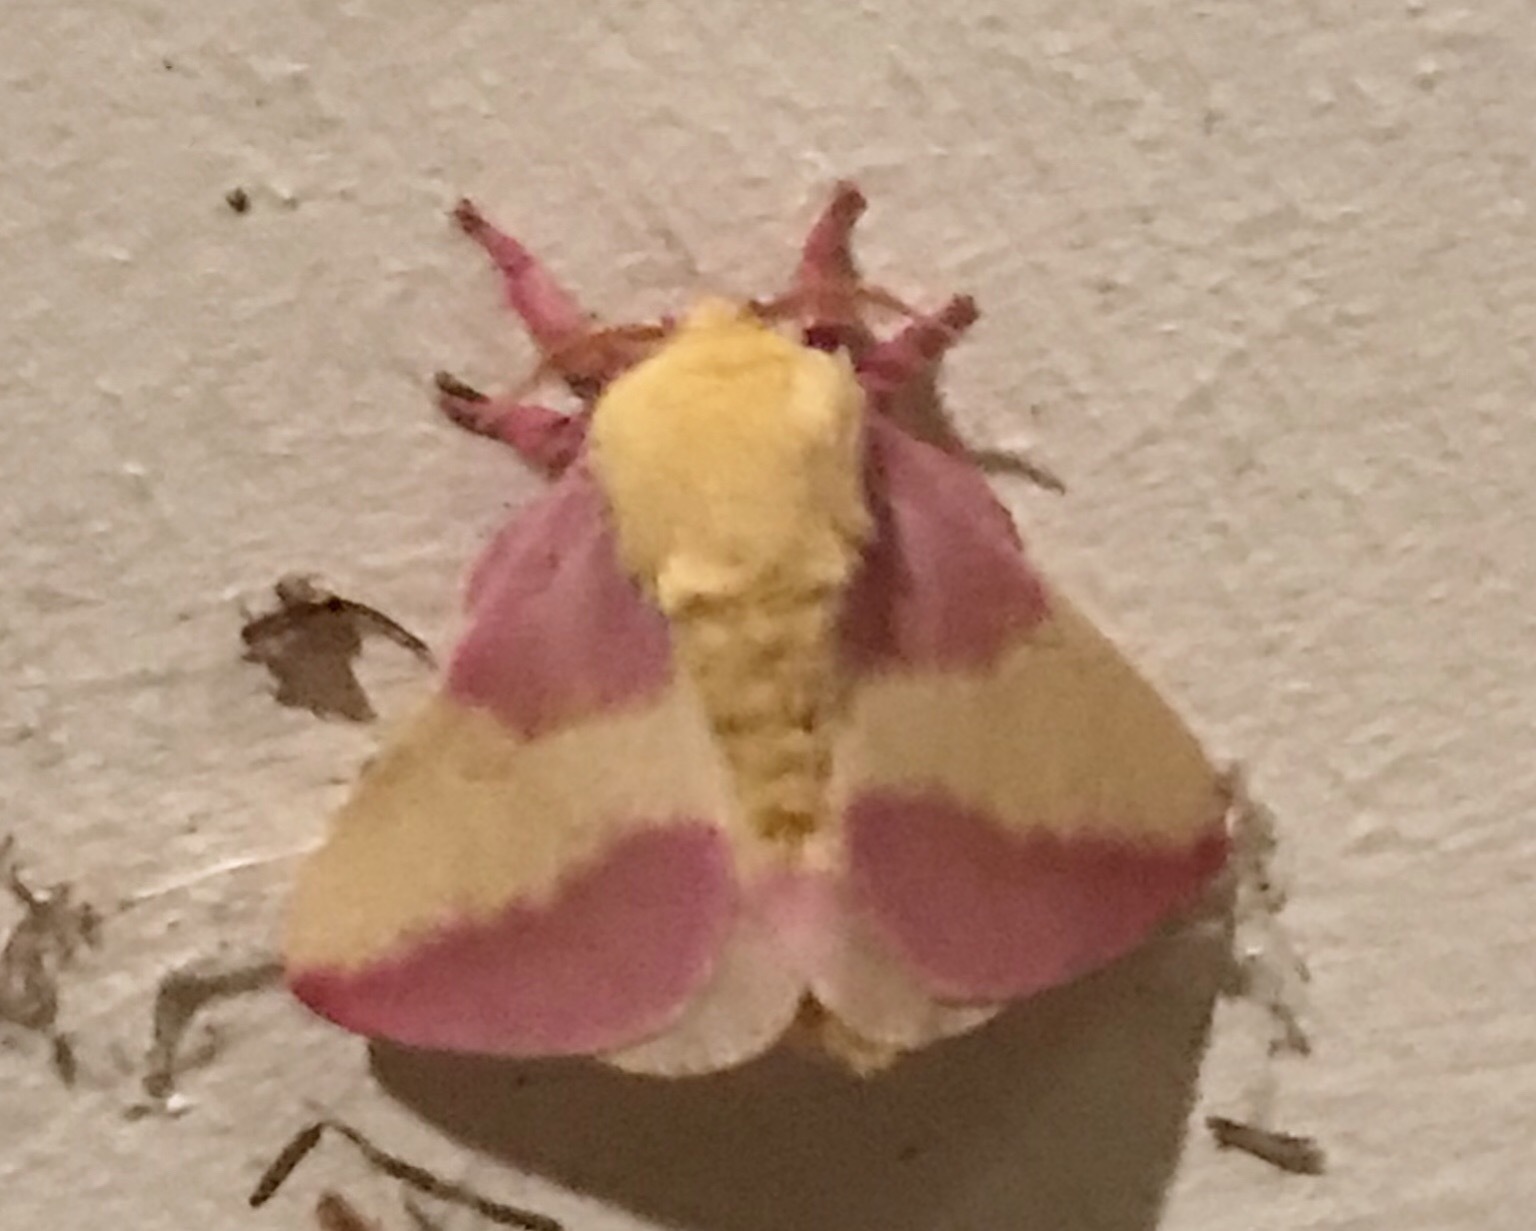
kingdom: Animalia
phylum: Arthropoda
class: Insecta
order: Lepidoptera
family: Saturniidae
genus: Dryocampa
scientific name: Dryocampa rubicunda
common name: Rosy maple moth
